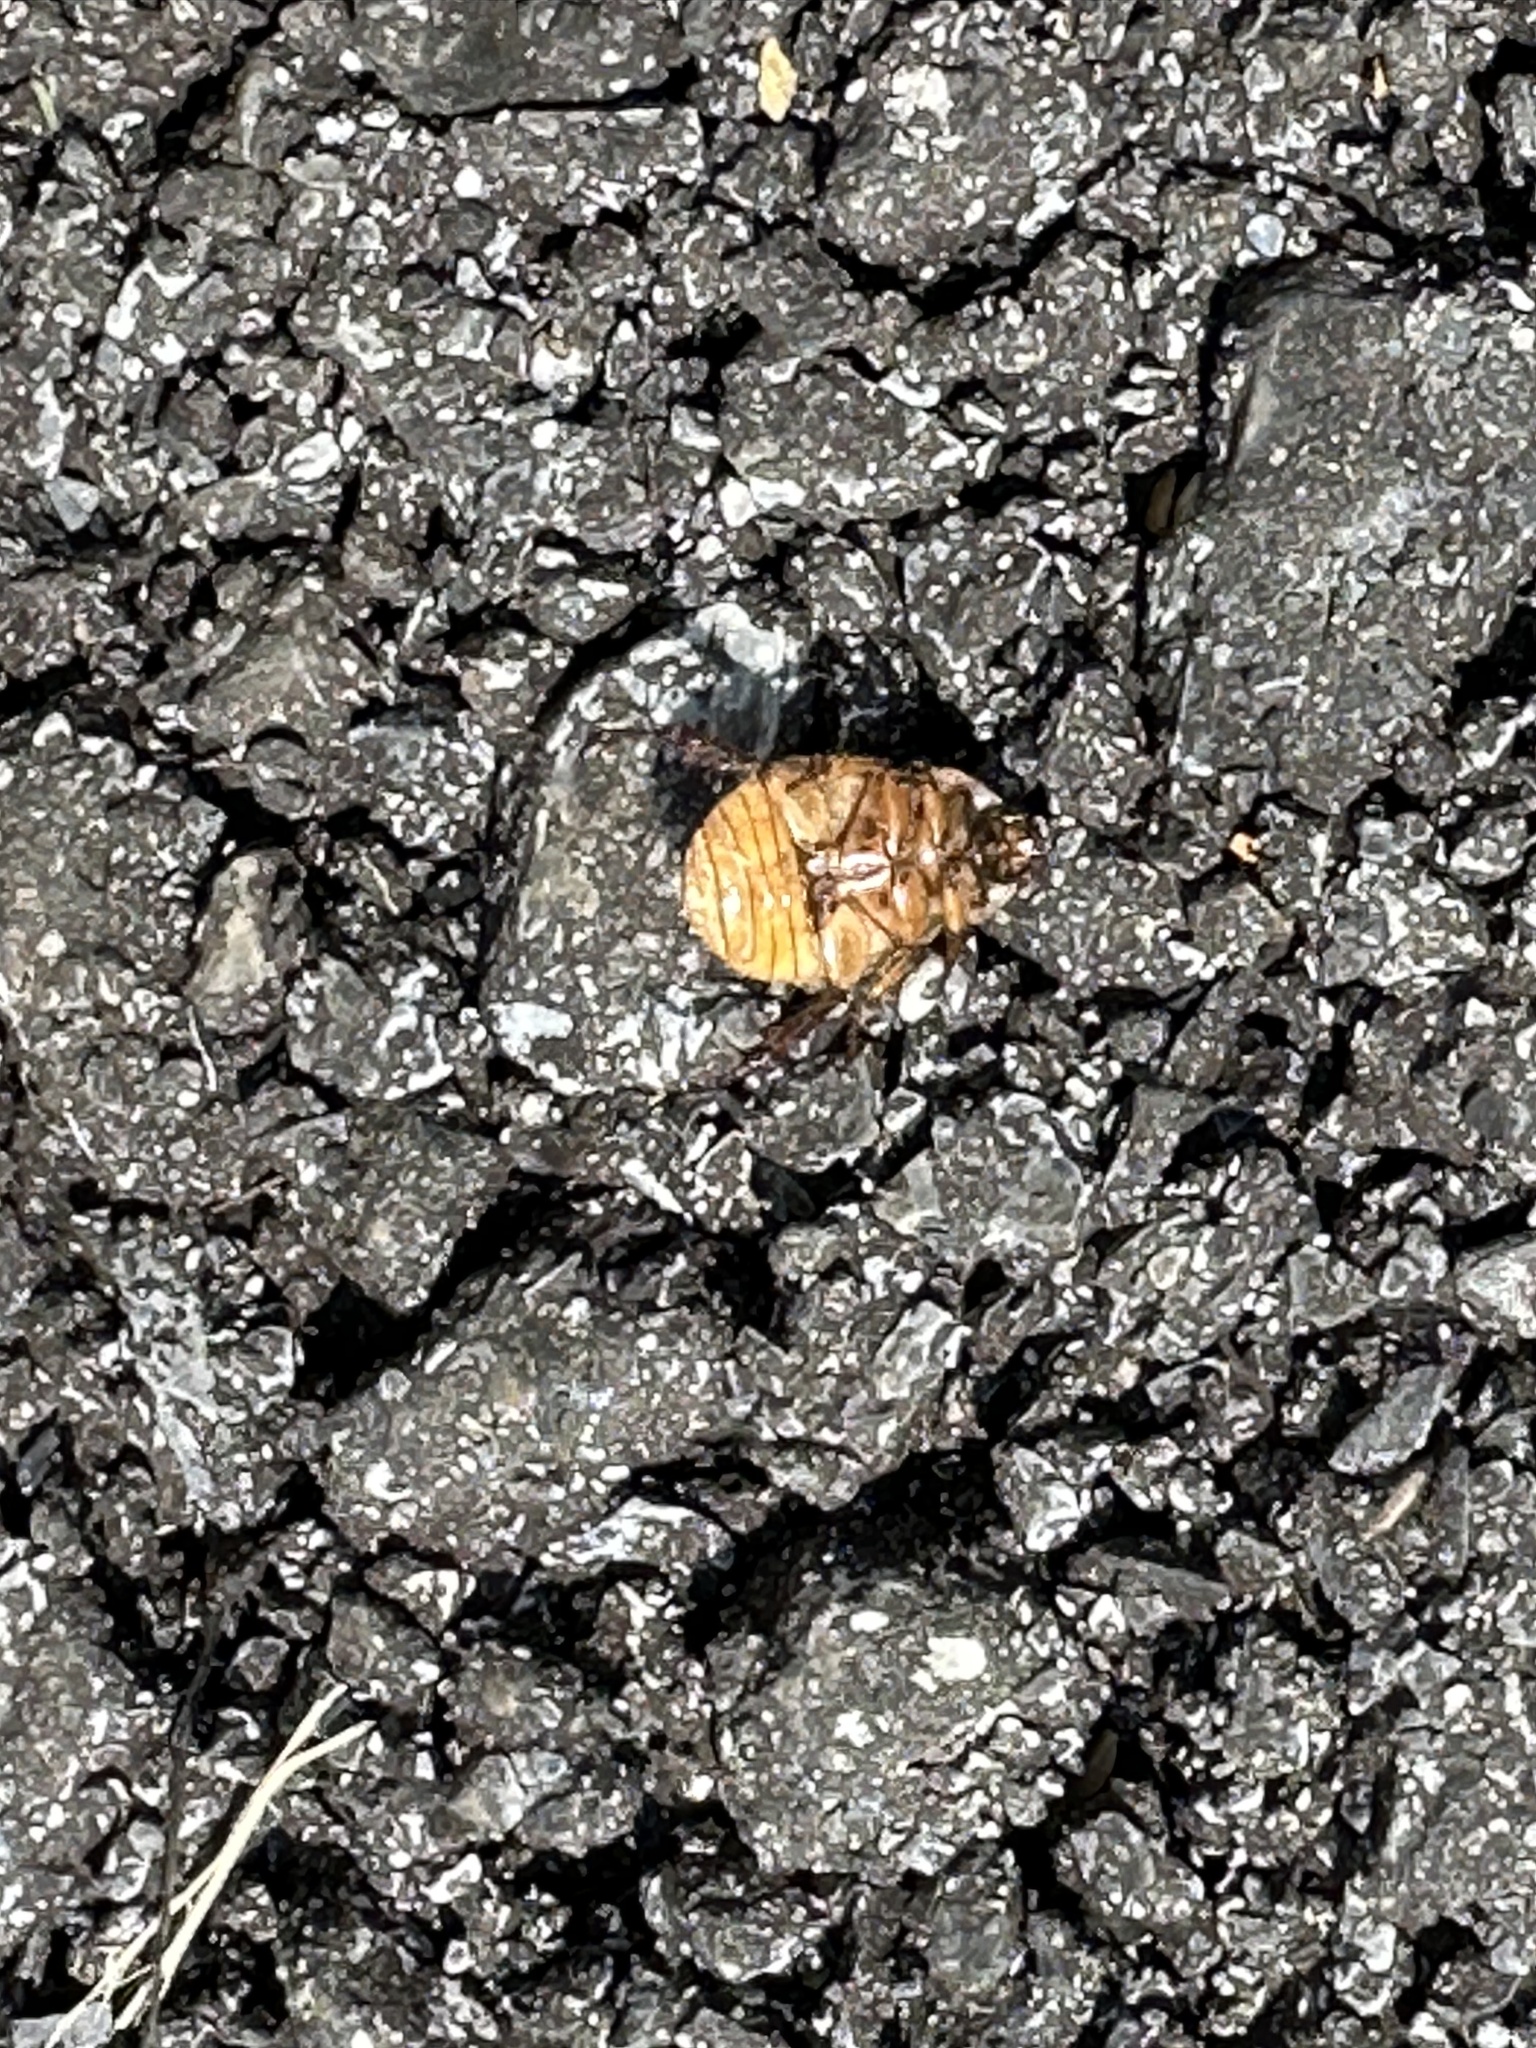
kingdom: Animalia
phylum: Arthropoda
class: Insecta
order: Coleoptera
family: Scarabaeidae
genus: Exomala
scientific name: Exomala orientalis
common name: Oriental beetle
